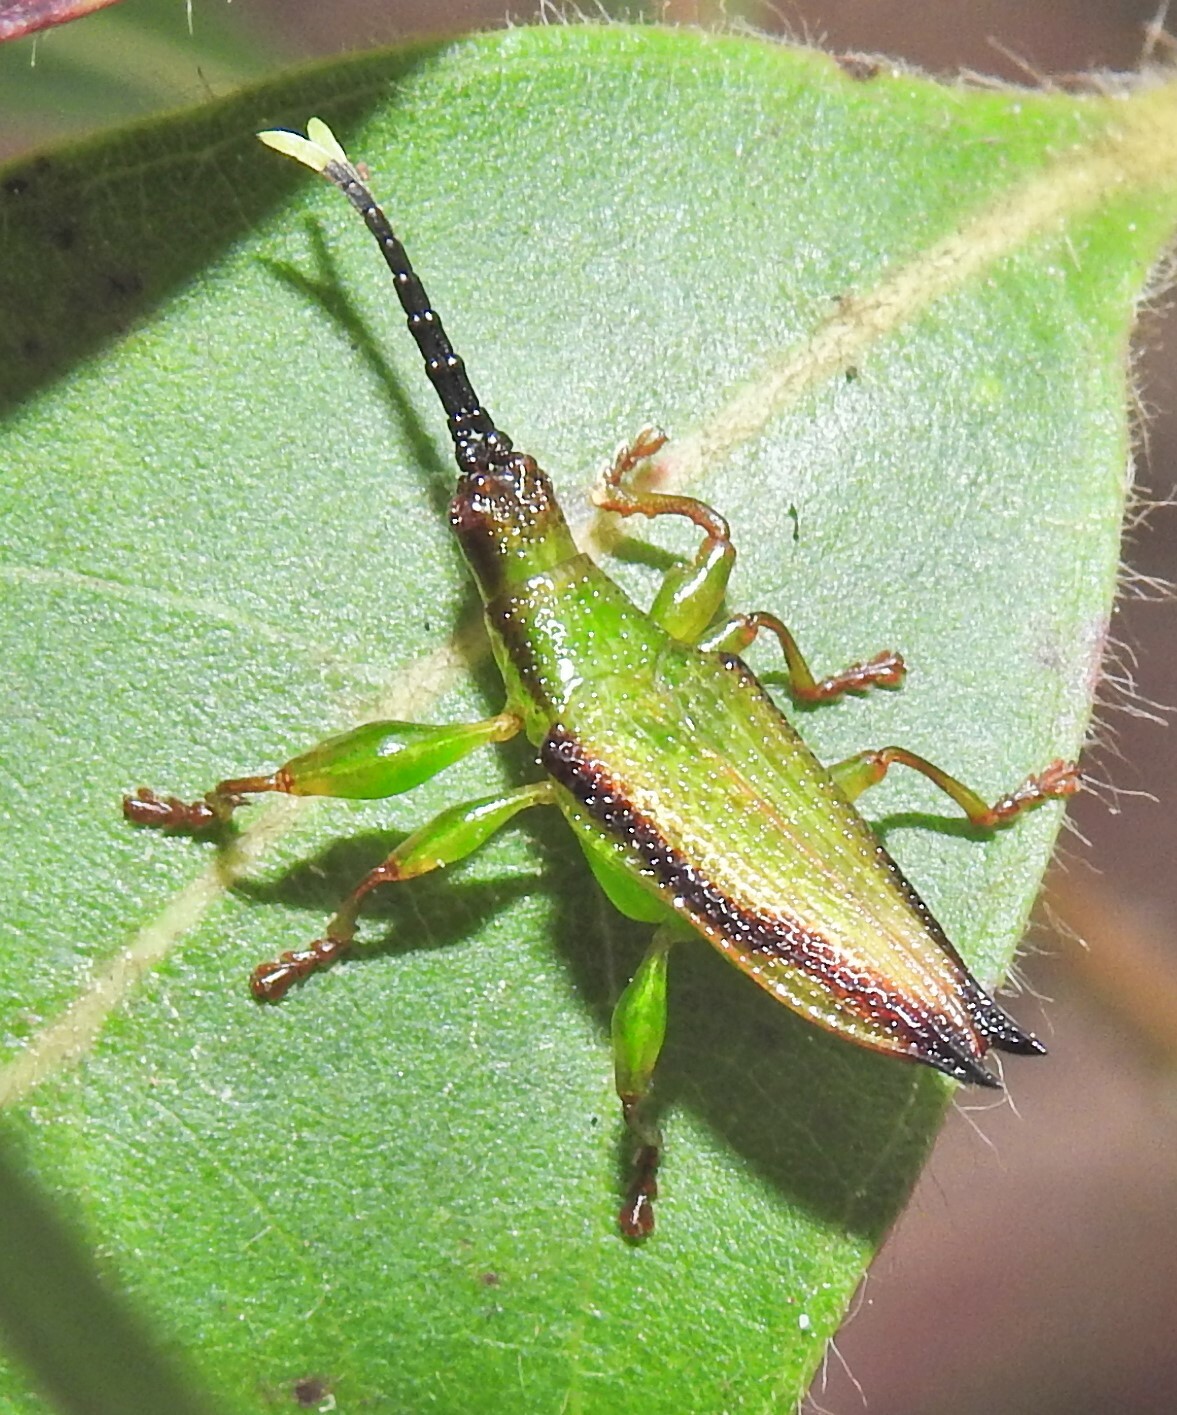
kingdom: Animalia
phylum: Arthropoda
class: Insecta
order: Coleoptera
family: Chrysomelidae
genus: Aproida
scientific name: Aproida balyi
